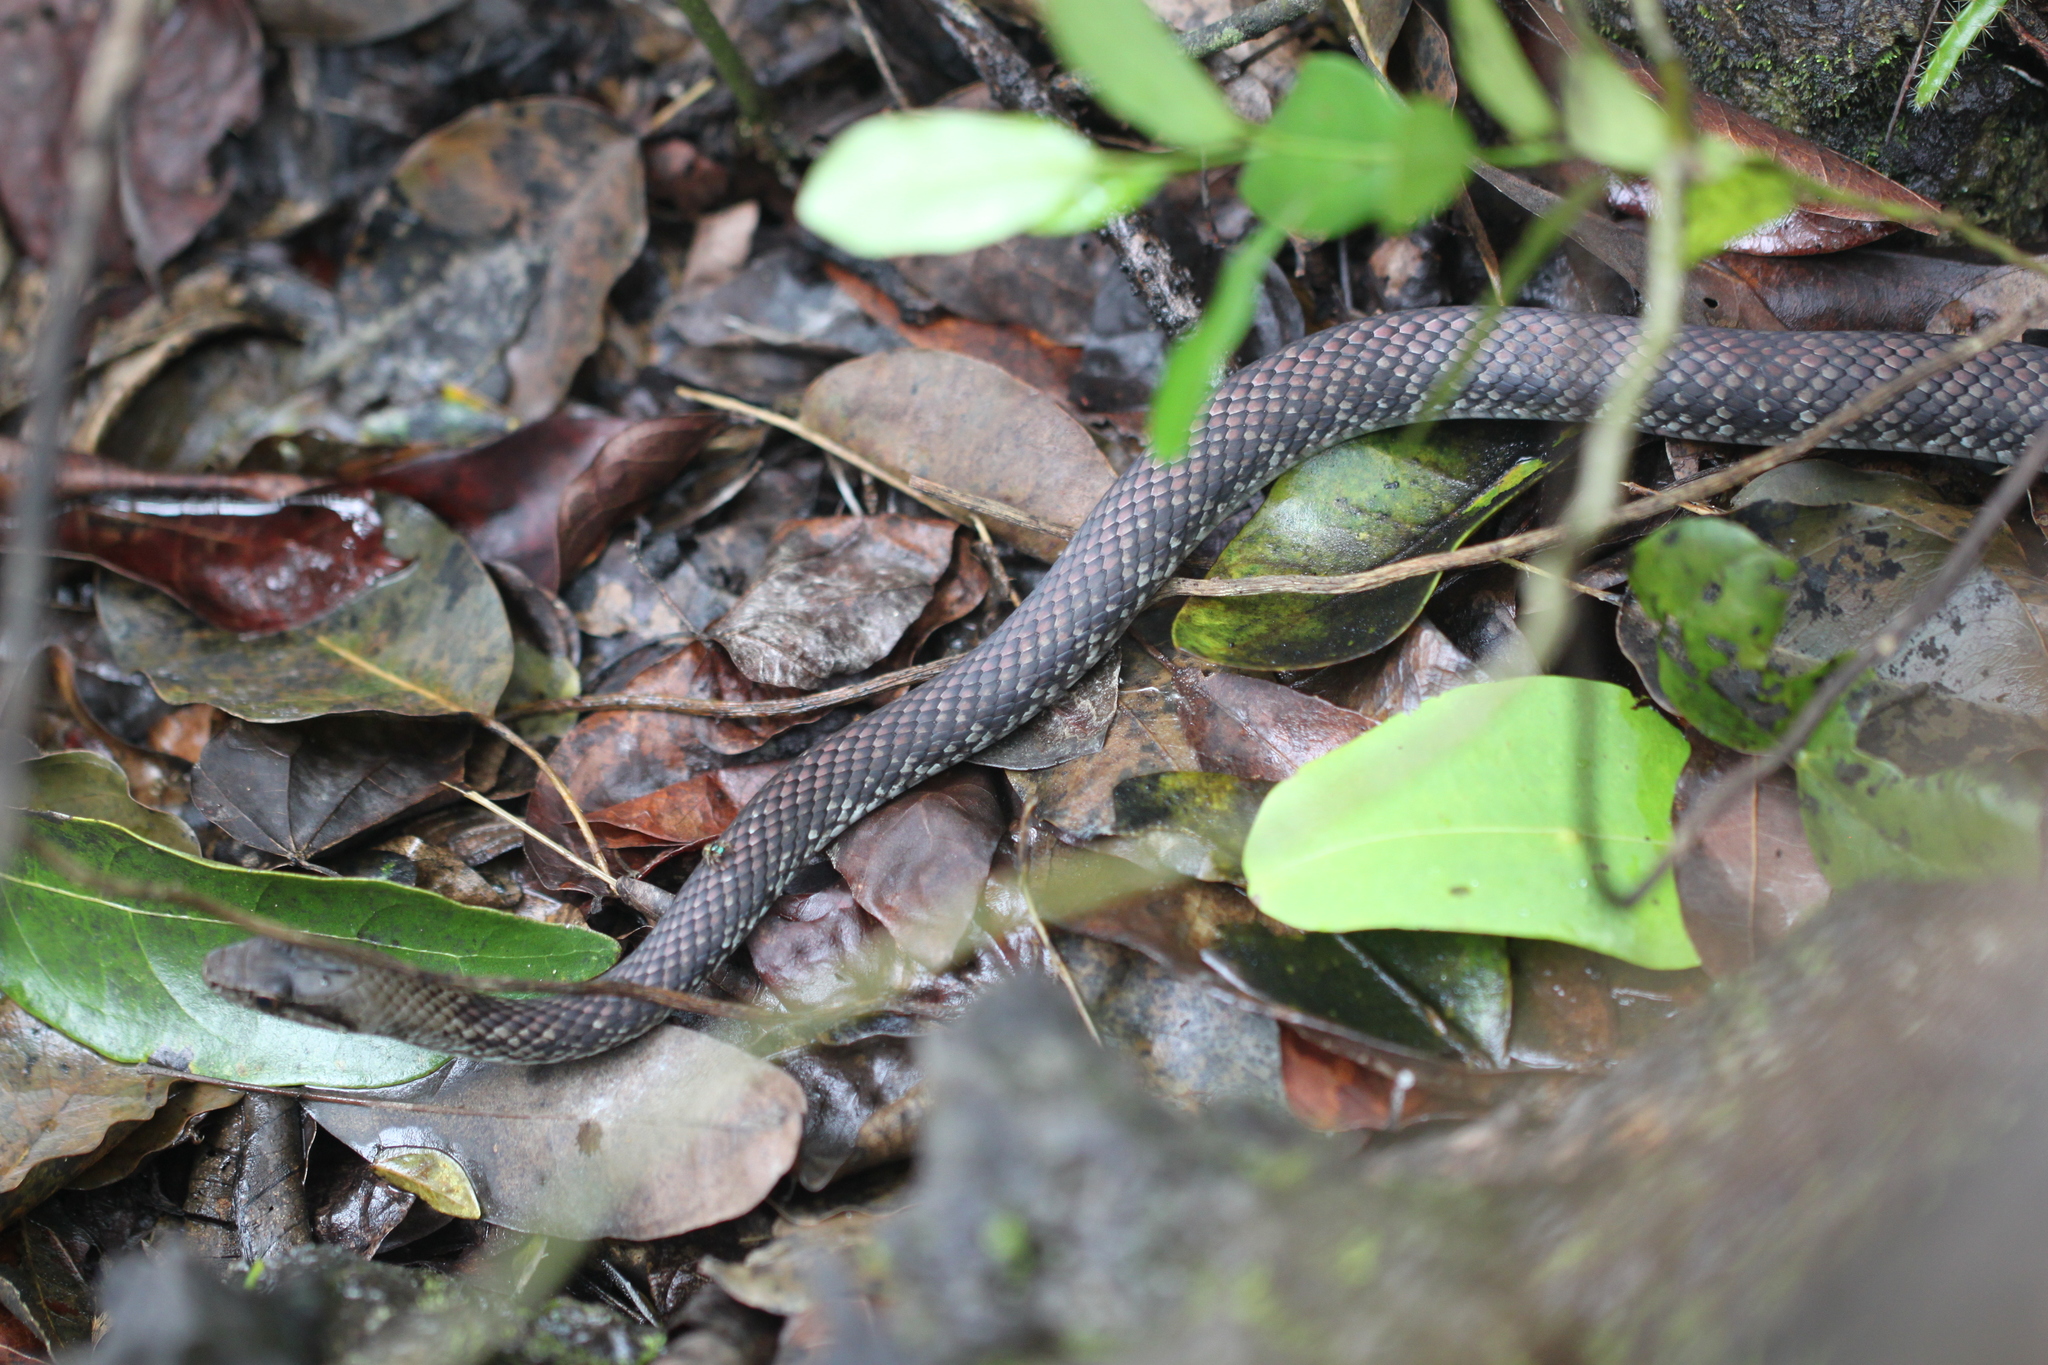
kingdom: Animalia
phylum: Chordata
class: Squamata
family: Colubridae
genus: Cubophis
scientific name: Cubophis caymanus
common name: Black snake
